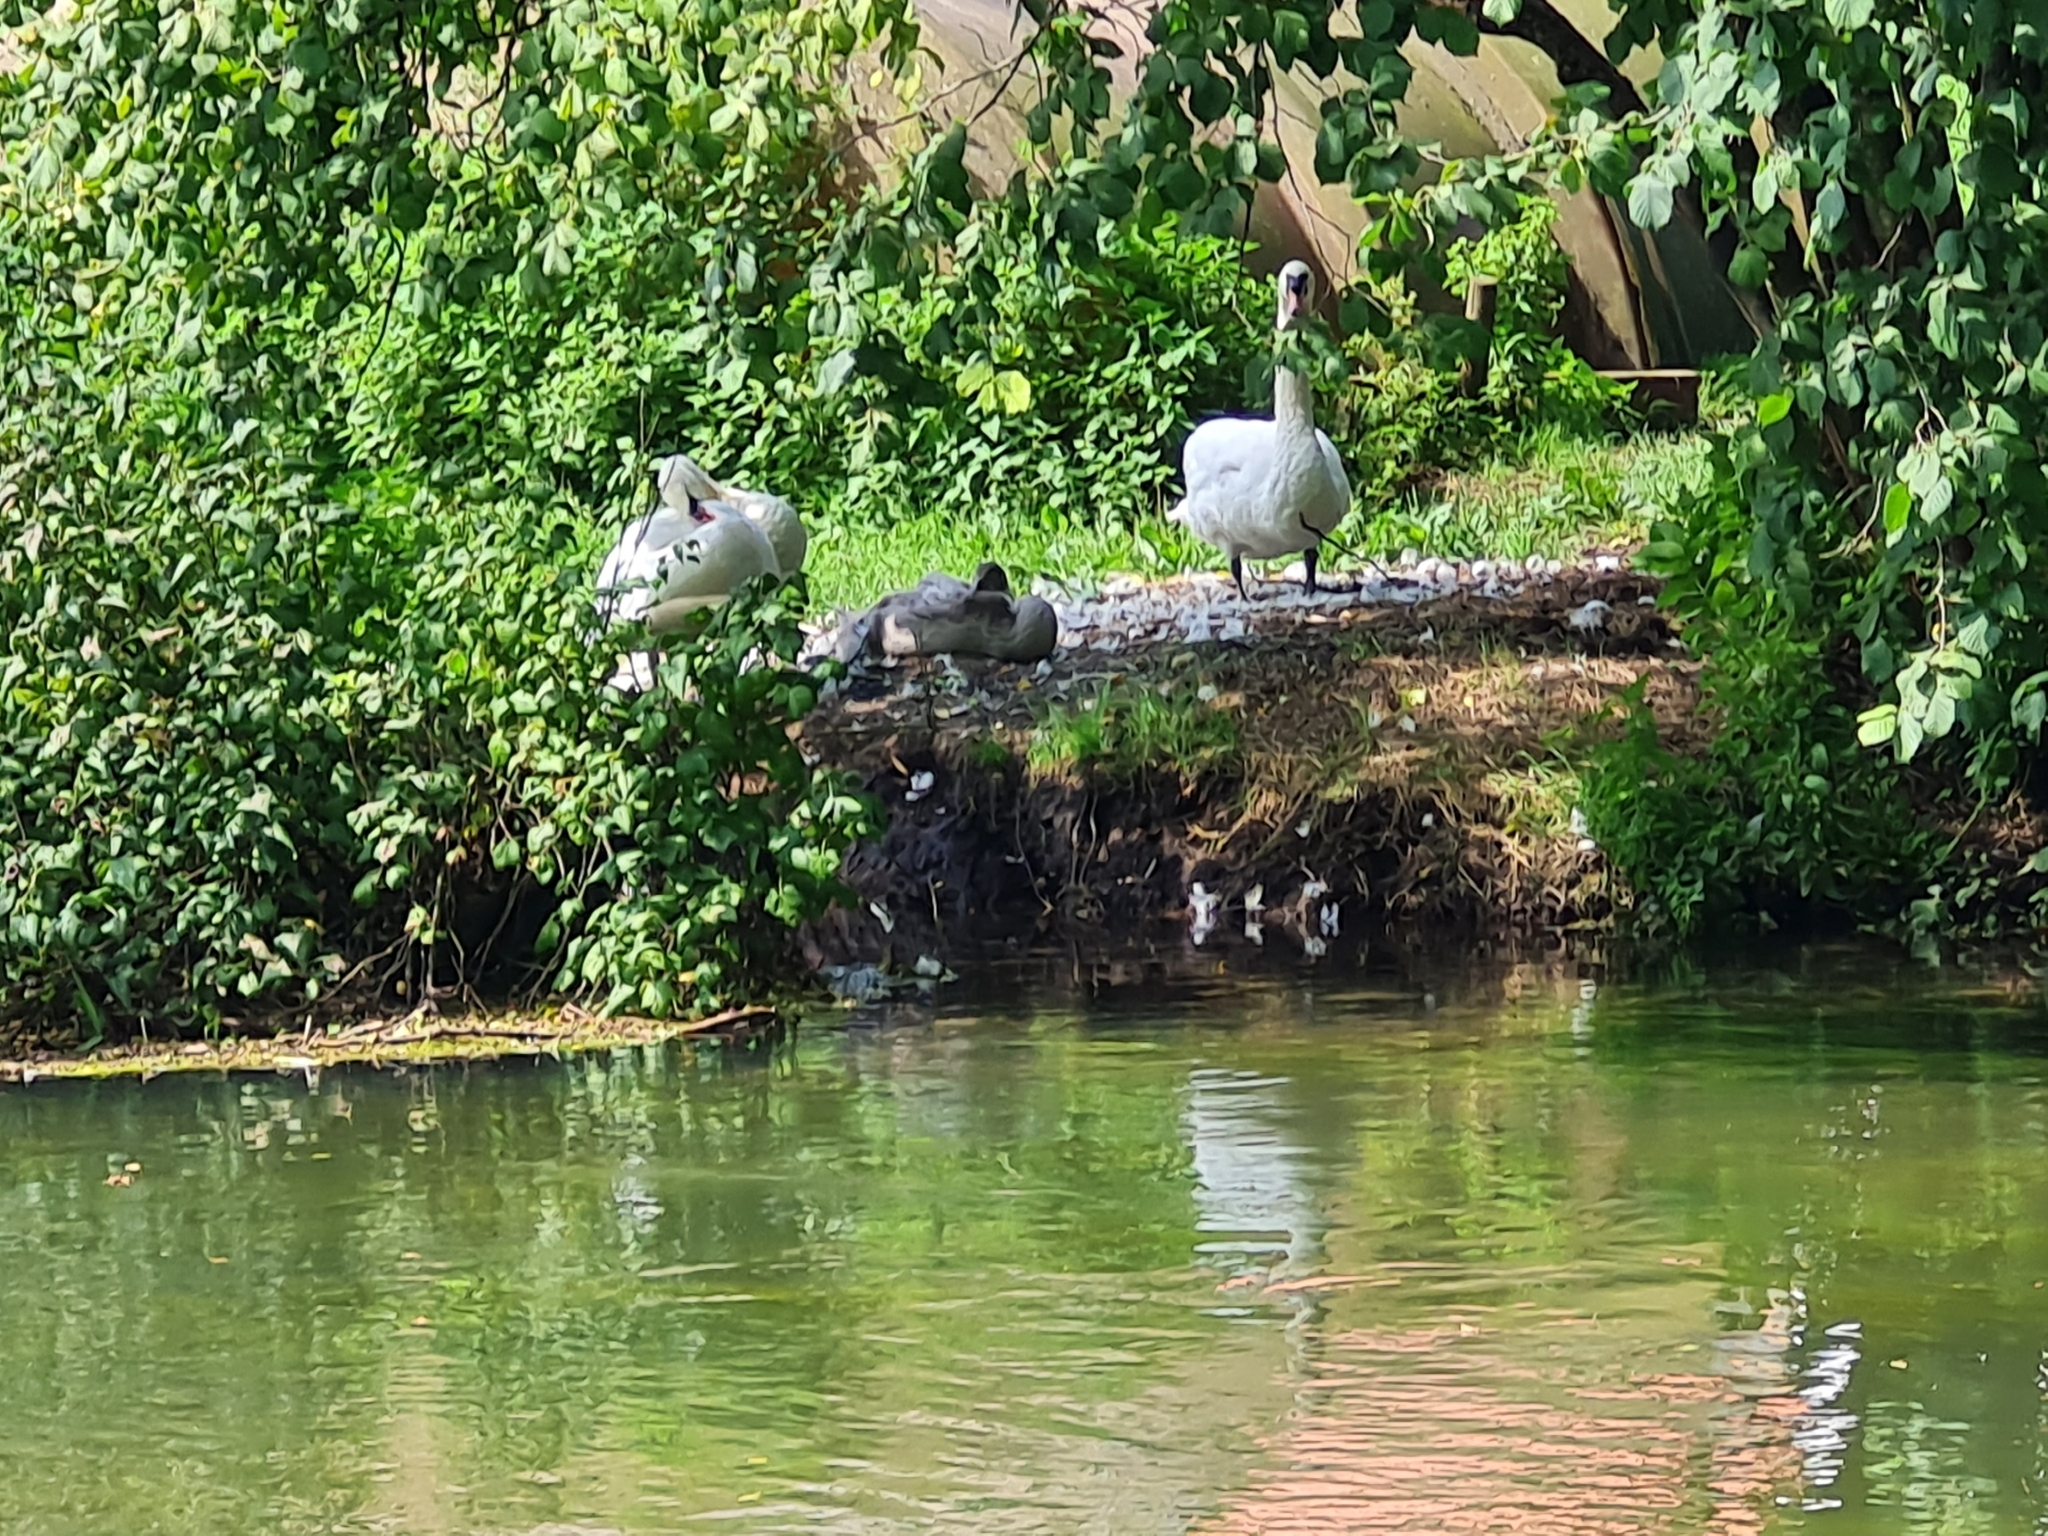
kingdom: Animalia
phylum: Chordata
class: Aves
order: Anseriformes
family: Anatidae
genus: Cygnus
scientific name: Cygnus olor
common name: Mute swan
